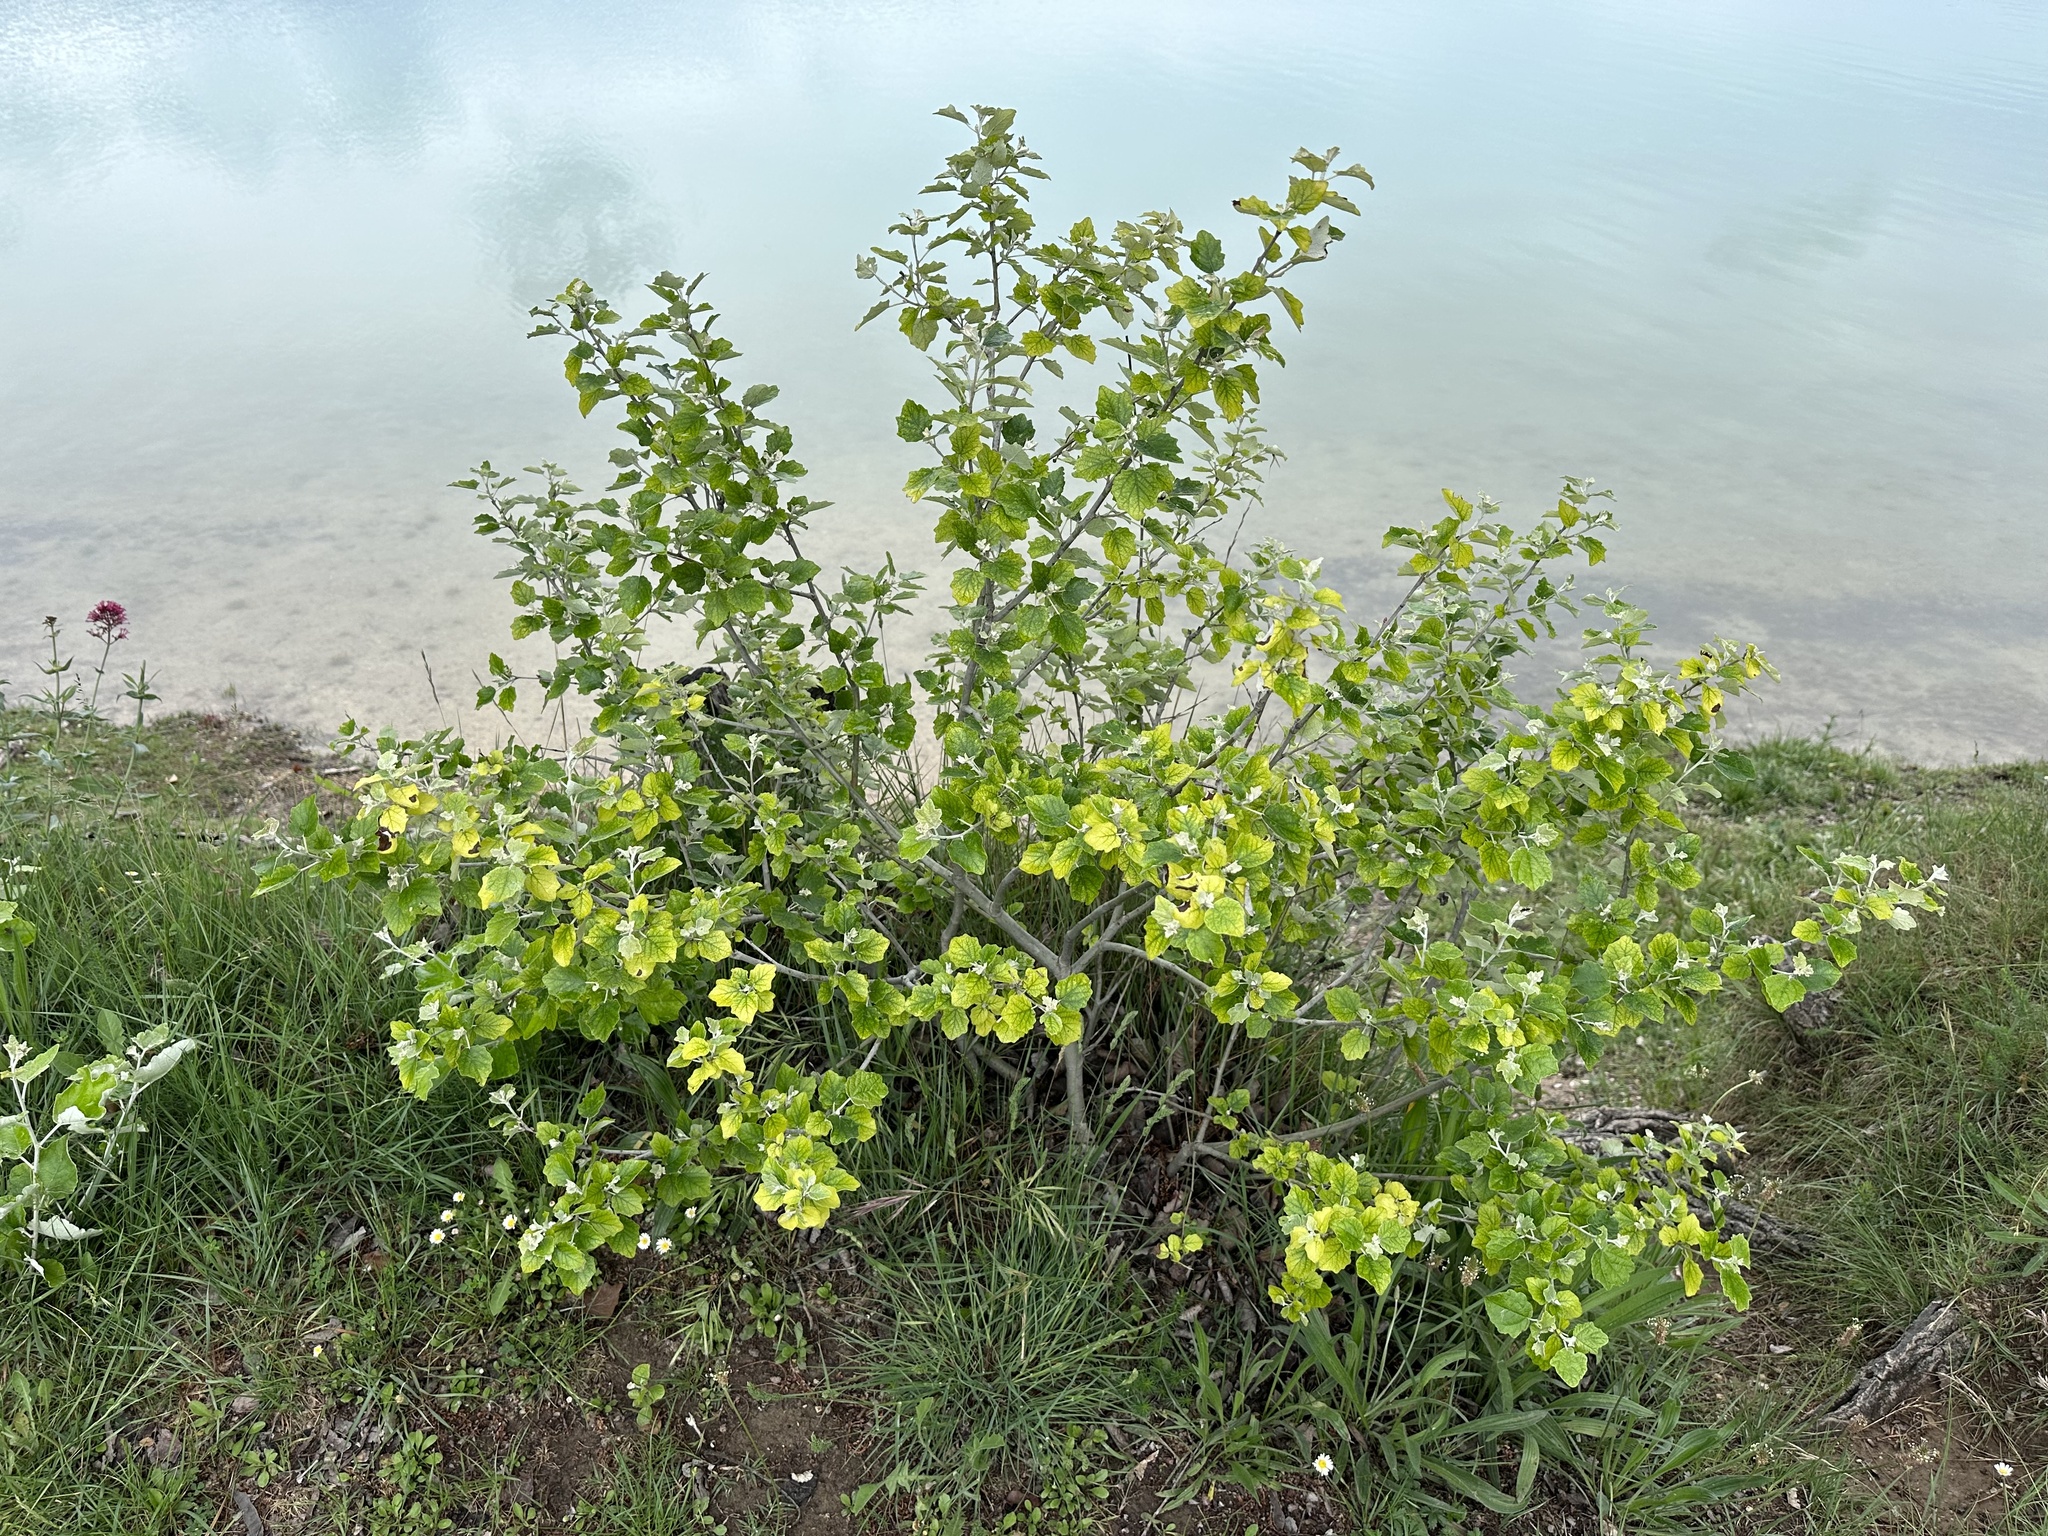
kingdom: Plantae
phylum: Tracheophyta
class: Magnoliopsida
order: Malpighiales
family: Salicaceae
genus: Populus
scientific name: Populus canescens
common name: Gray poplar
